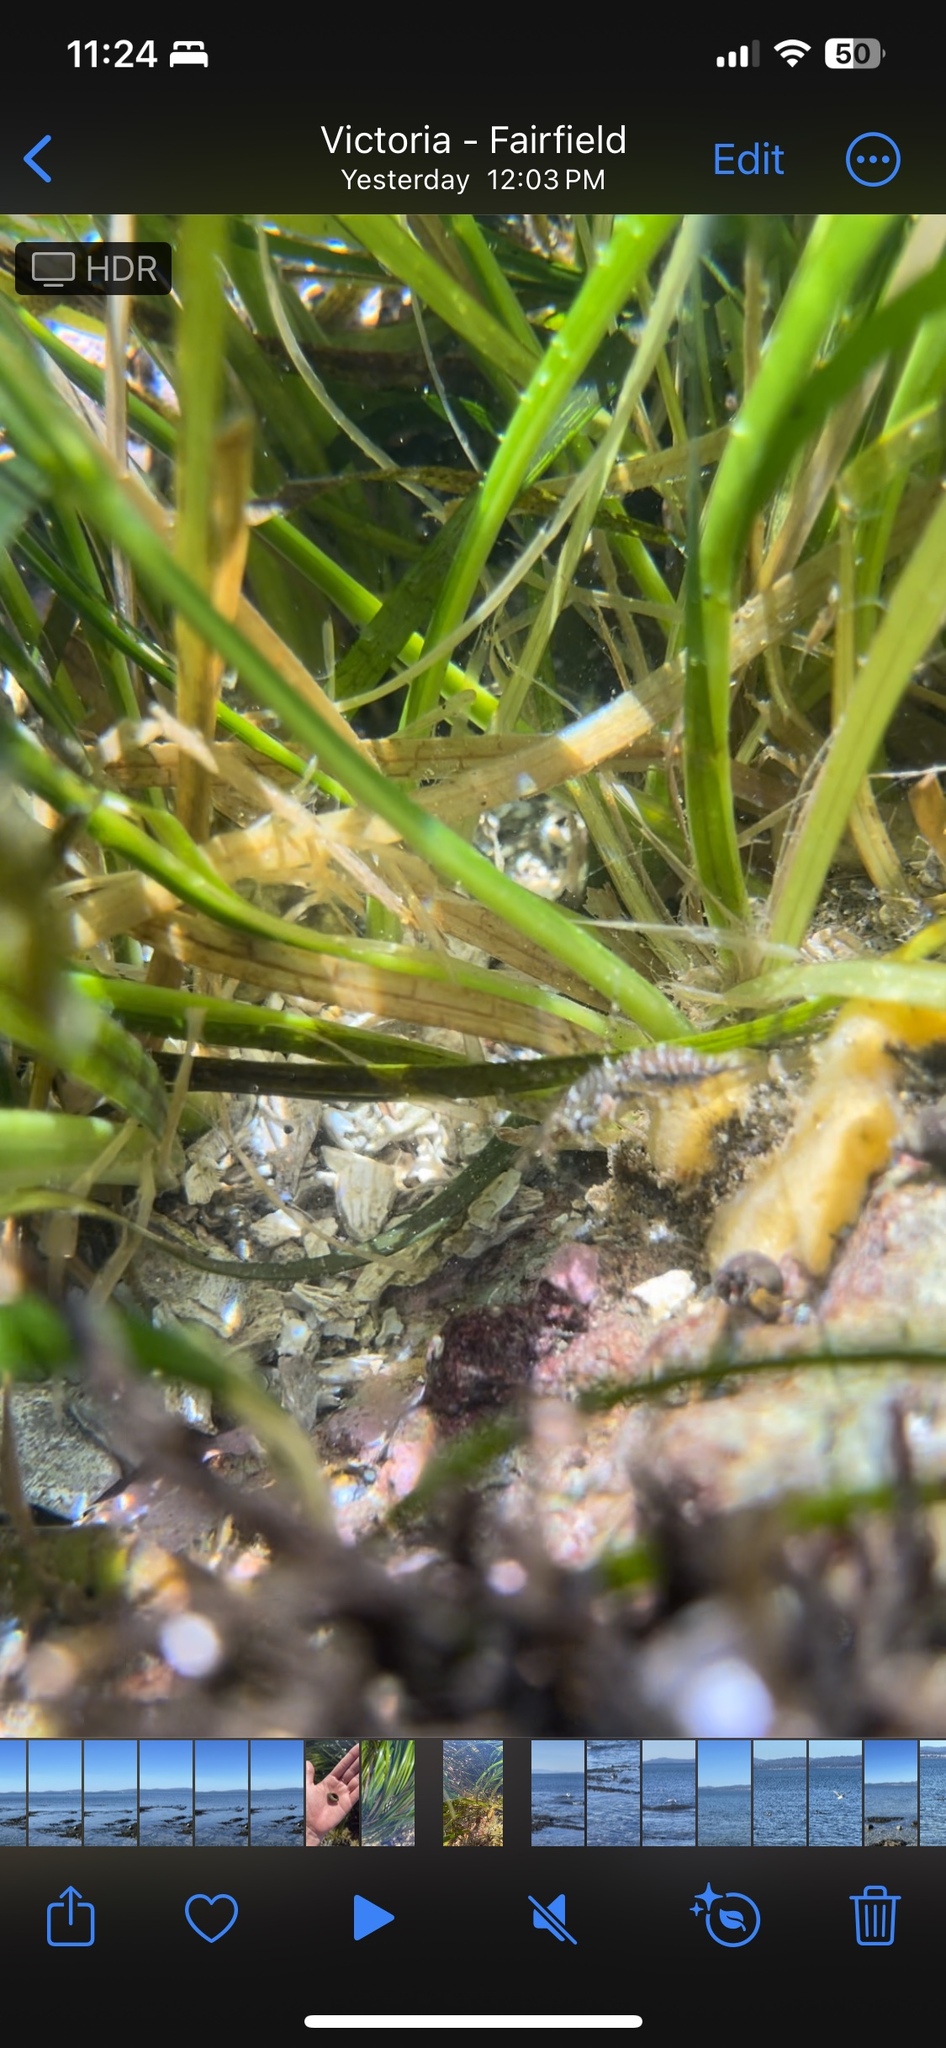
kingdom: Animalia
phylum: Arthropoda
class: Malacostraca
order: Decapoda
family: Thoridae
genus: Heptacarpus
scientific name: Heptacarpus sitchensis
